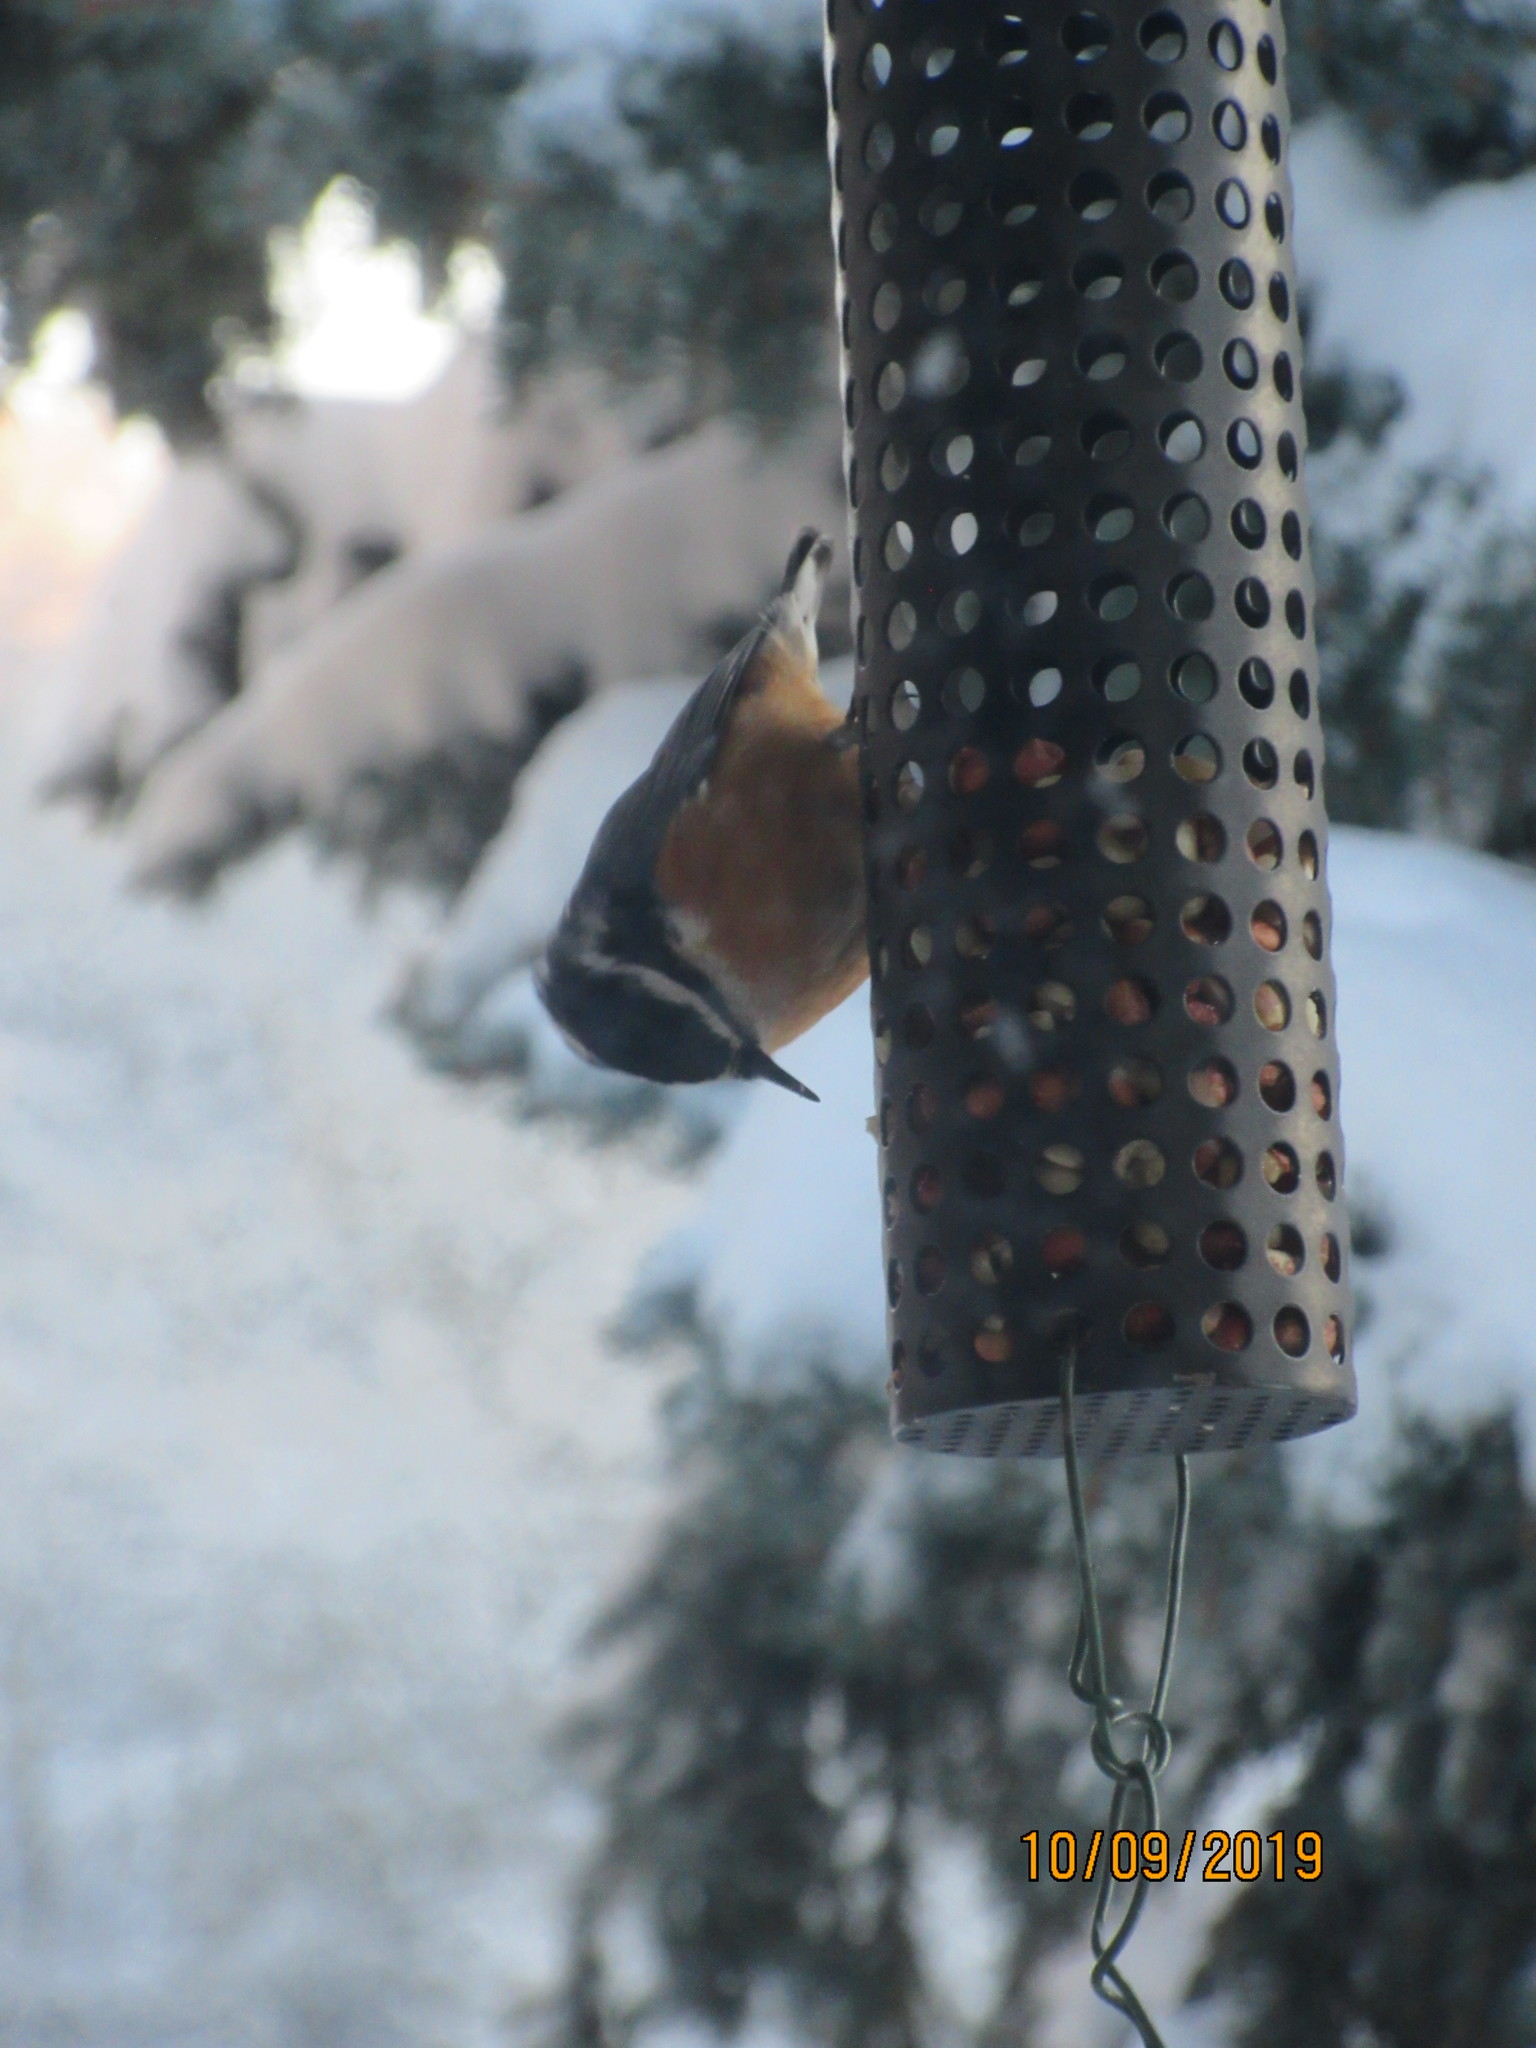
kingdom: Animalia
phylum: Chordata
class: Aves
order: Passeriformes
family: Sittidae
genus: Sitta
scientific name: Sitta canadensis
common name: Red-breasted nuthatch
